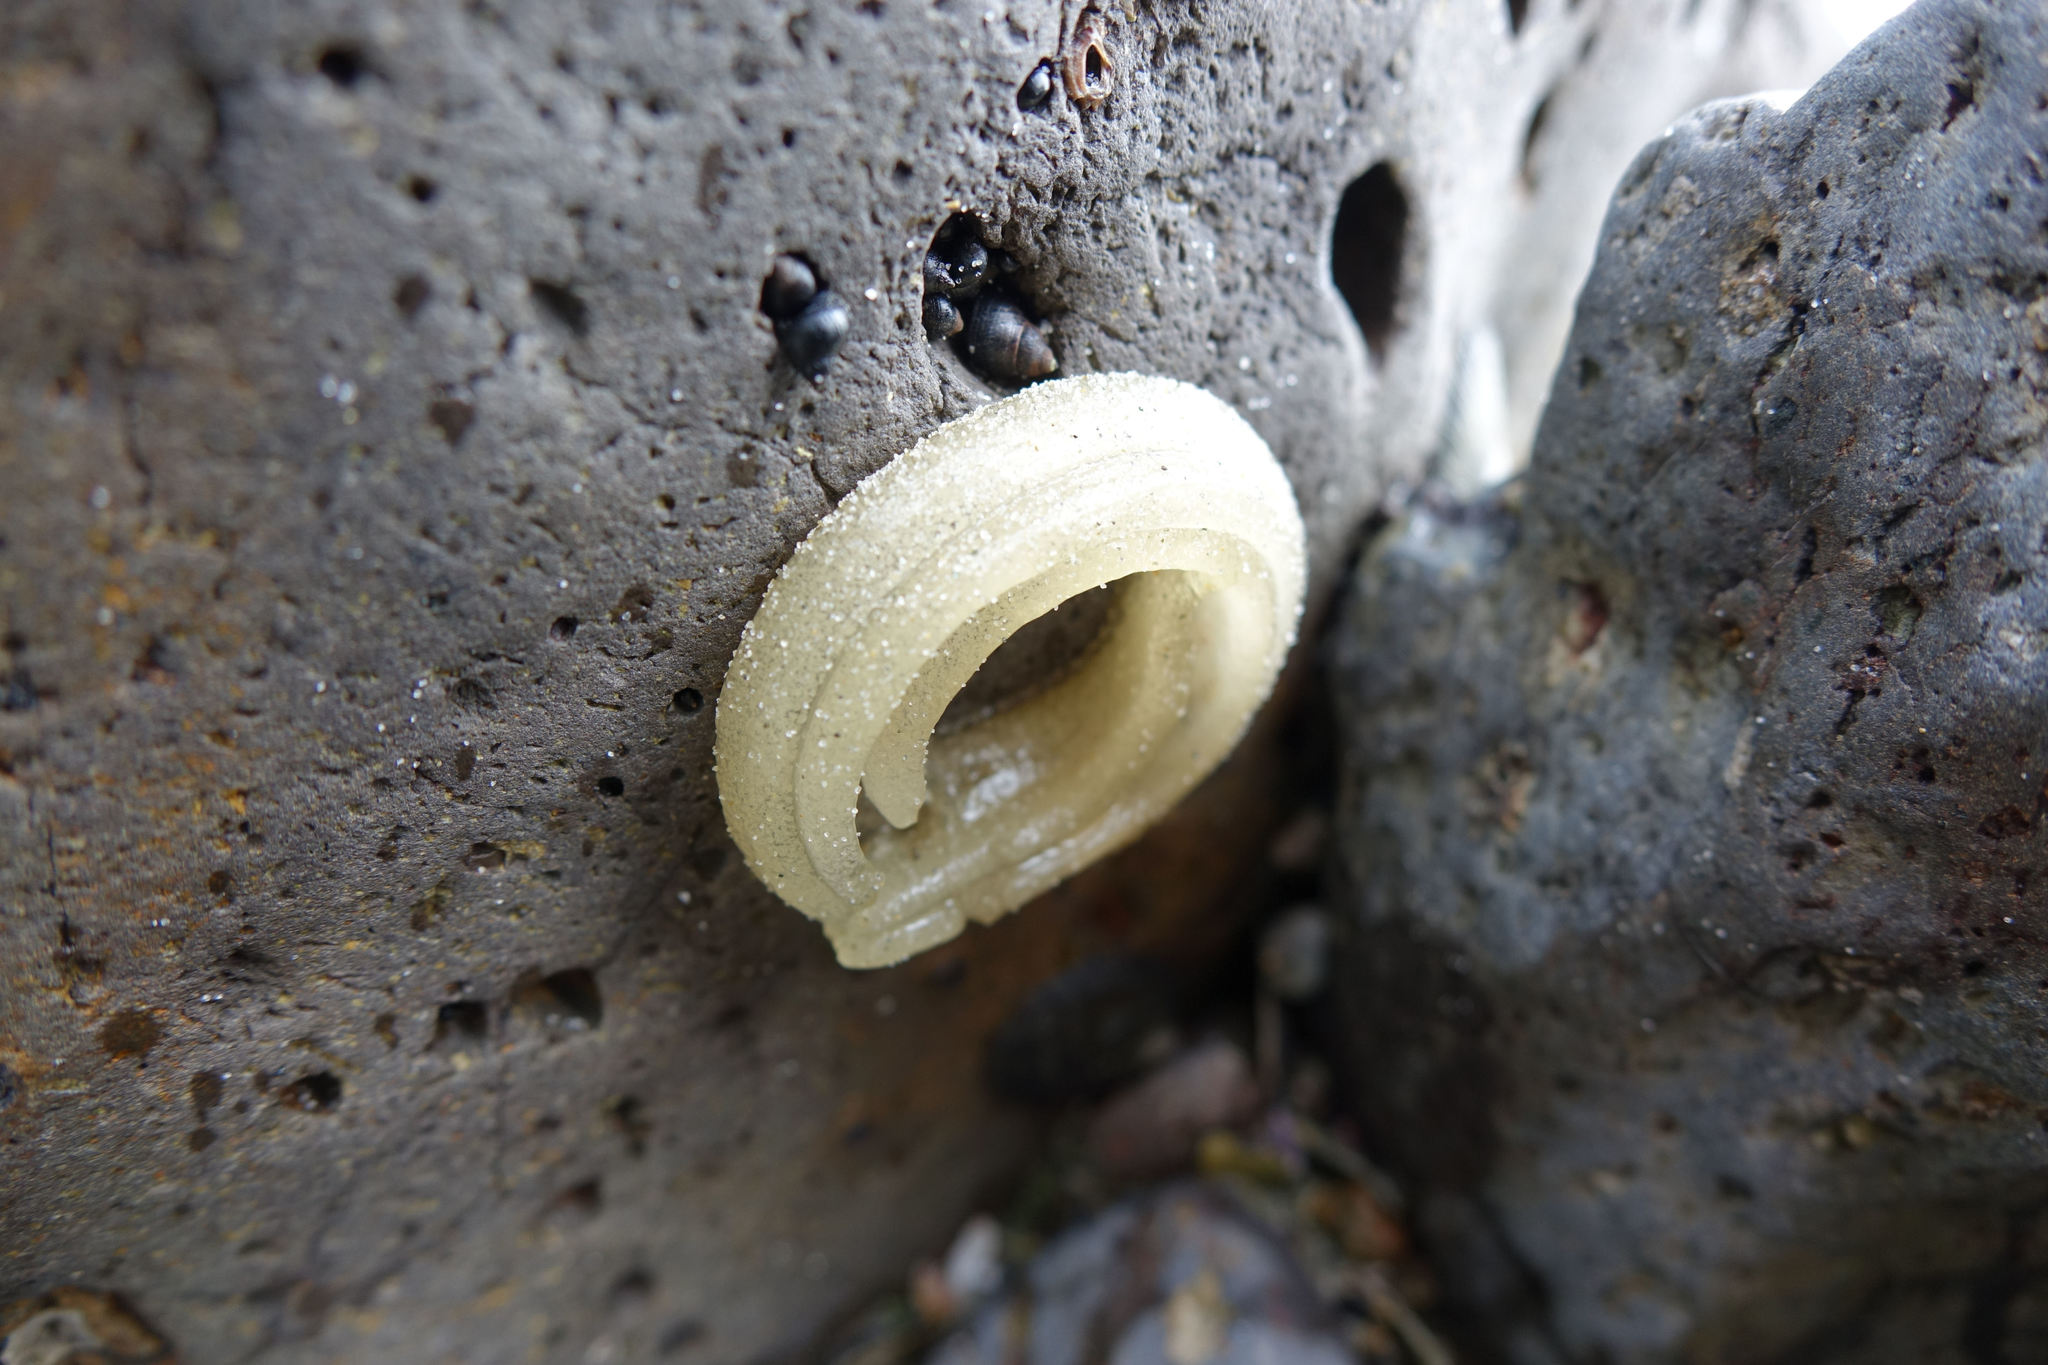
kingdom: Animalia
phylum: Mollusca
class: Gastropoda
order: Siphonariida
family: Siphonariidae
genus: Benhamina
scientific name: Benhamina obliquata
